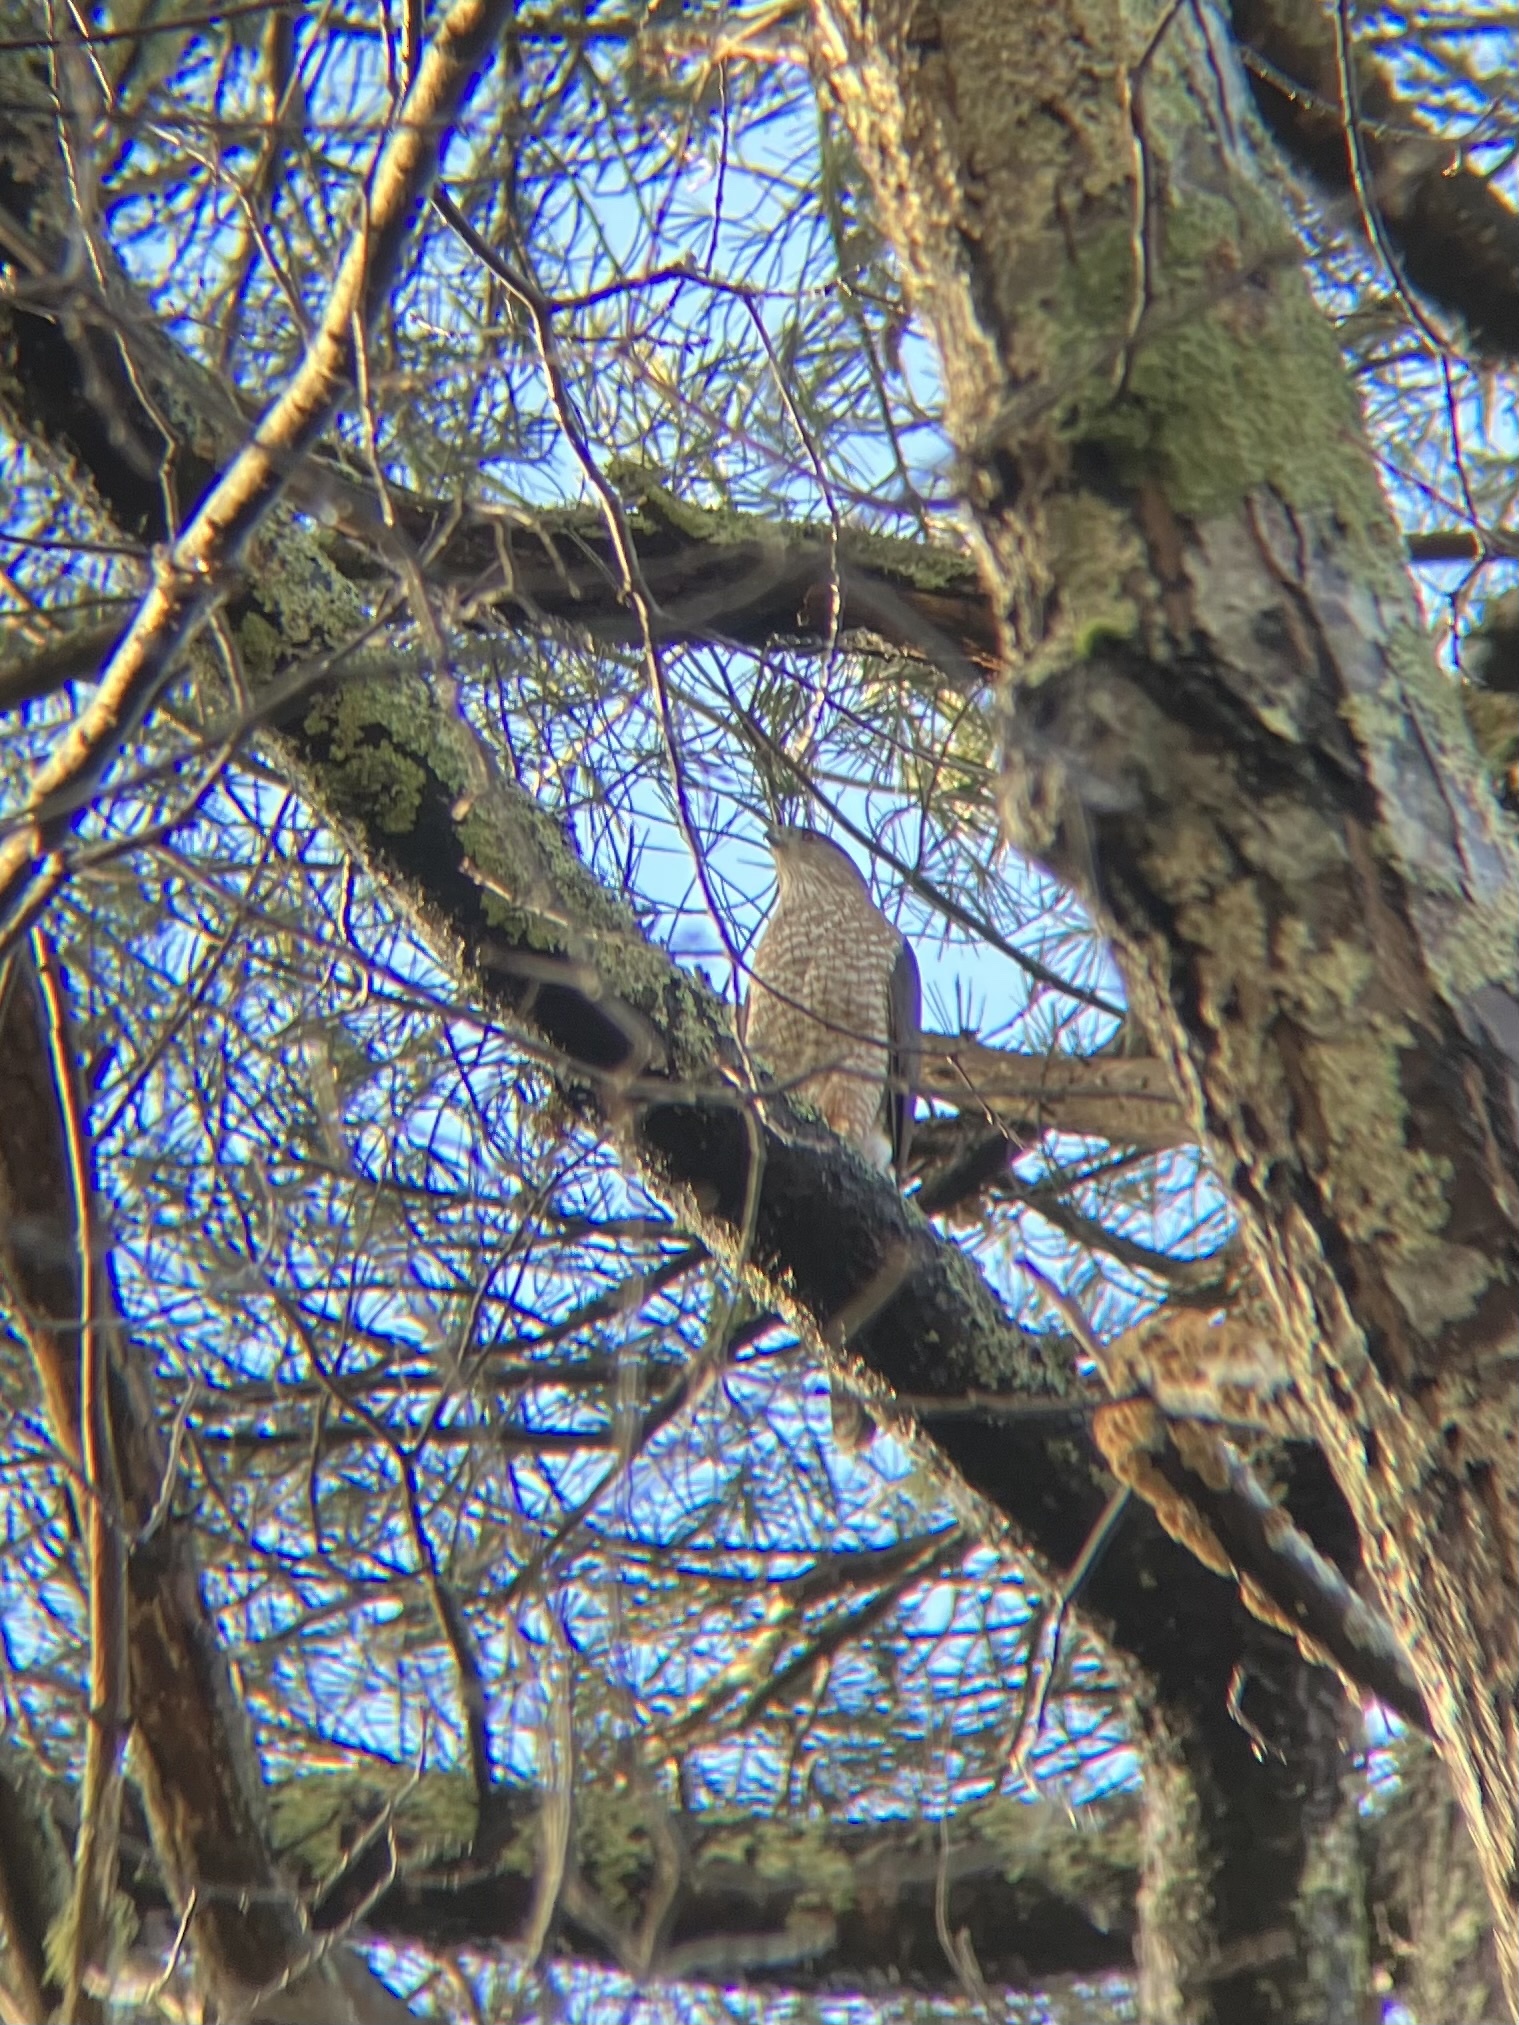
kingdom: Animalia
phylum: Chordata
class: Aves
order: Accipitriformes
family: Accipitridae
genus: Accipiter
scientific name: Accipiter cooperii
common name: Cooper's hawk
